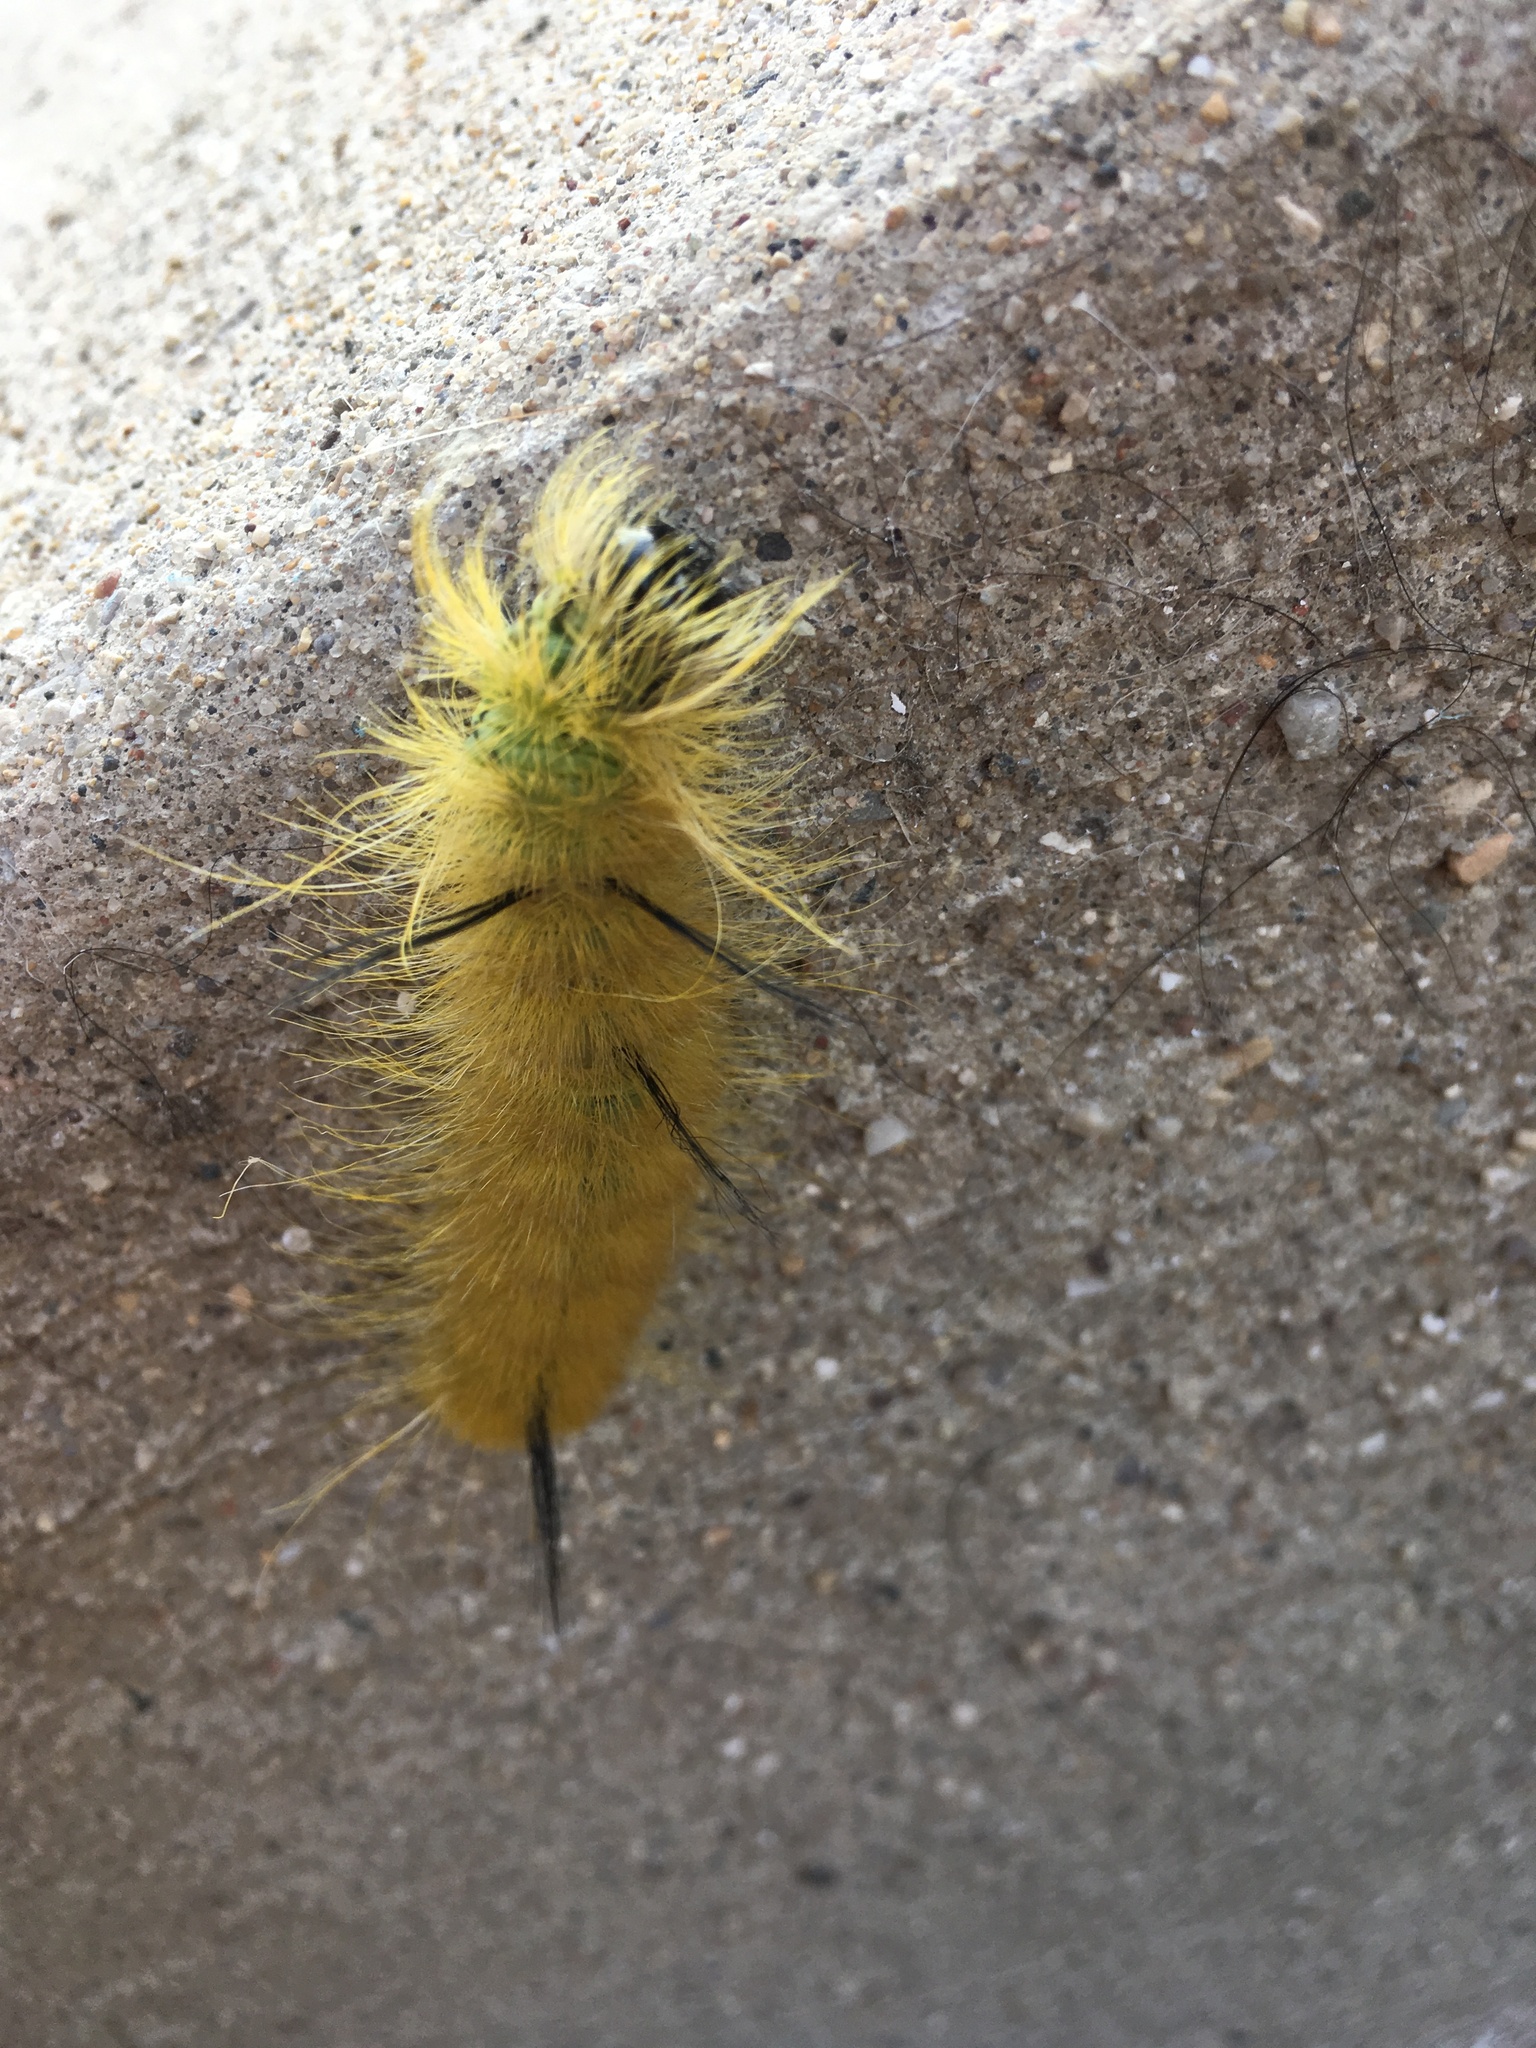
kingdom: Animalia
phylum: Arthropoda
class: Insecta
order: Lepidoptera
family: Noctuidae
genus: Acronicta
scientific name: Acronicta americana
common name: American dagger
